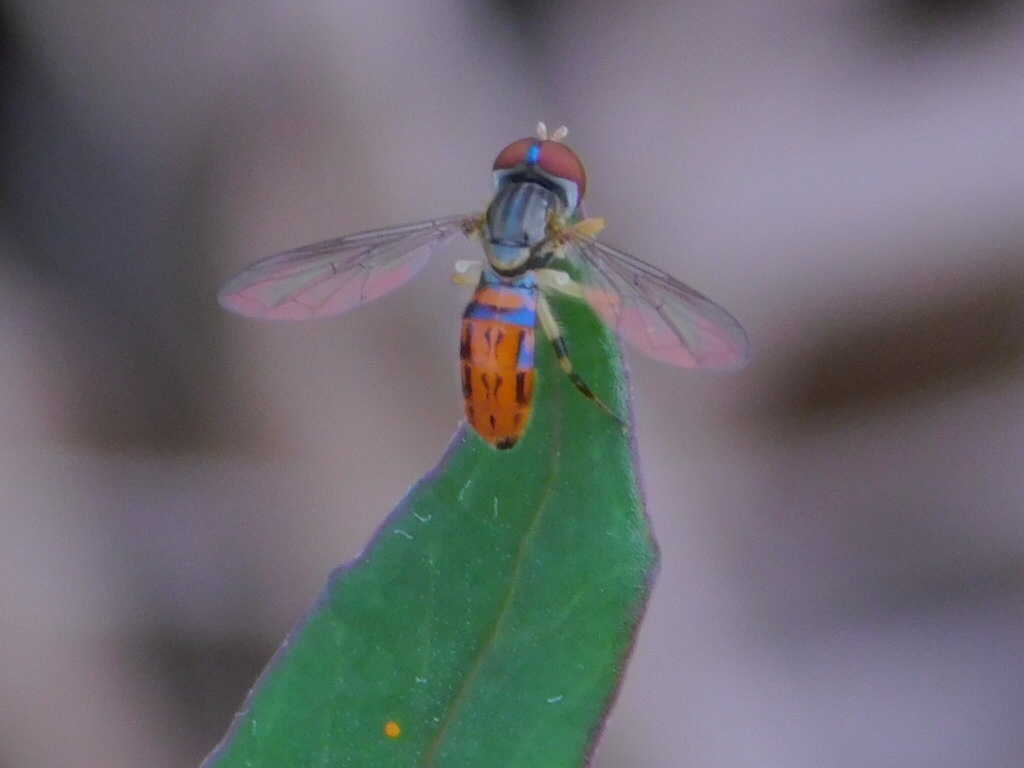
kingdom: Animalia
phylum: Arthropoda
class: Insecta
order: Diptera
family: Syrphidae
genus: Toxomerus
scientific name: Toxomerus boscii
